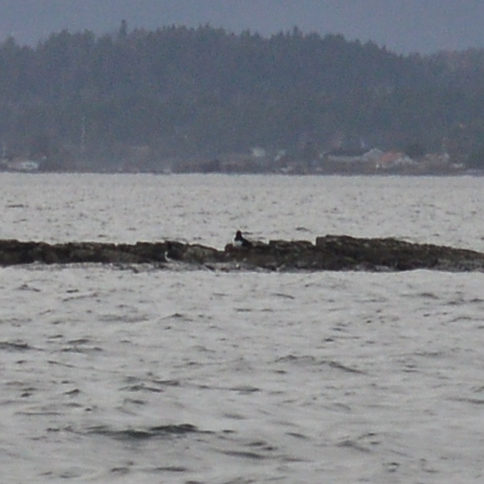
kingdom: Animalia
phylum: Chordata
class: Aves
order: Charadriiformes
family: Haematopodidae
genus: Haematopus
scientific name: Haematopus ostralegus
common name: Eurasian oystercatcher
